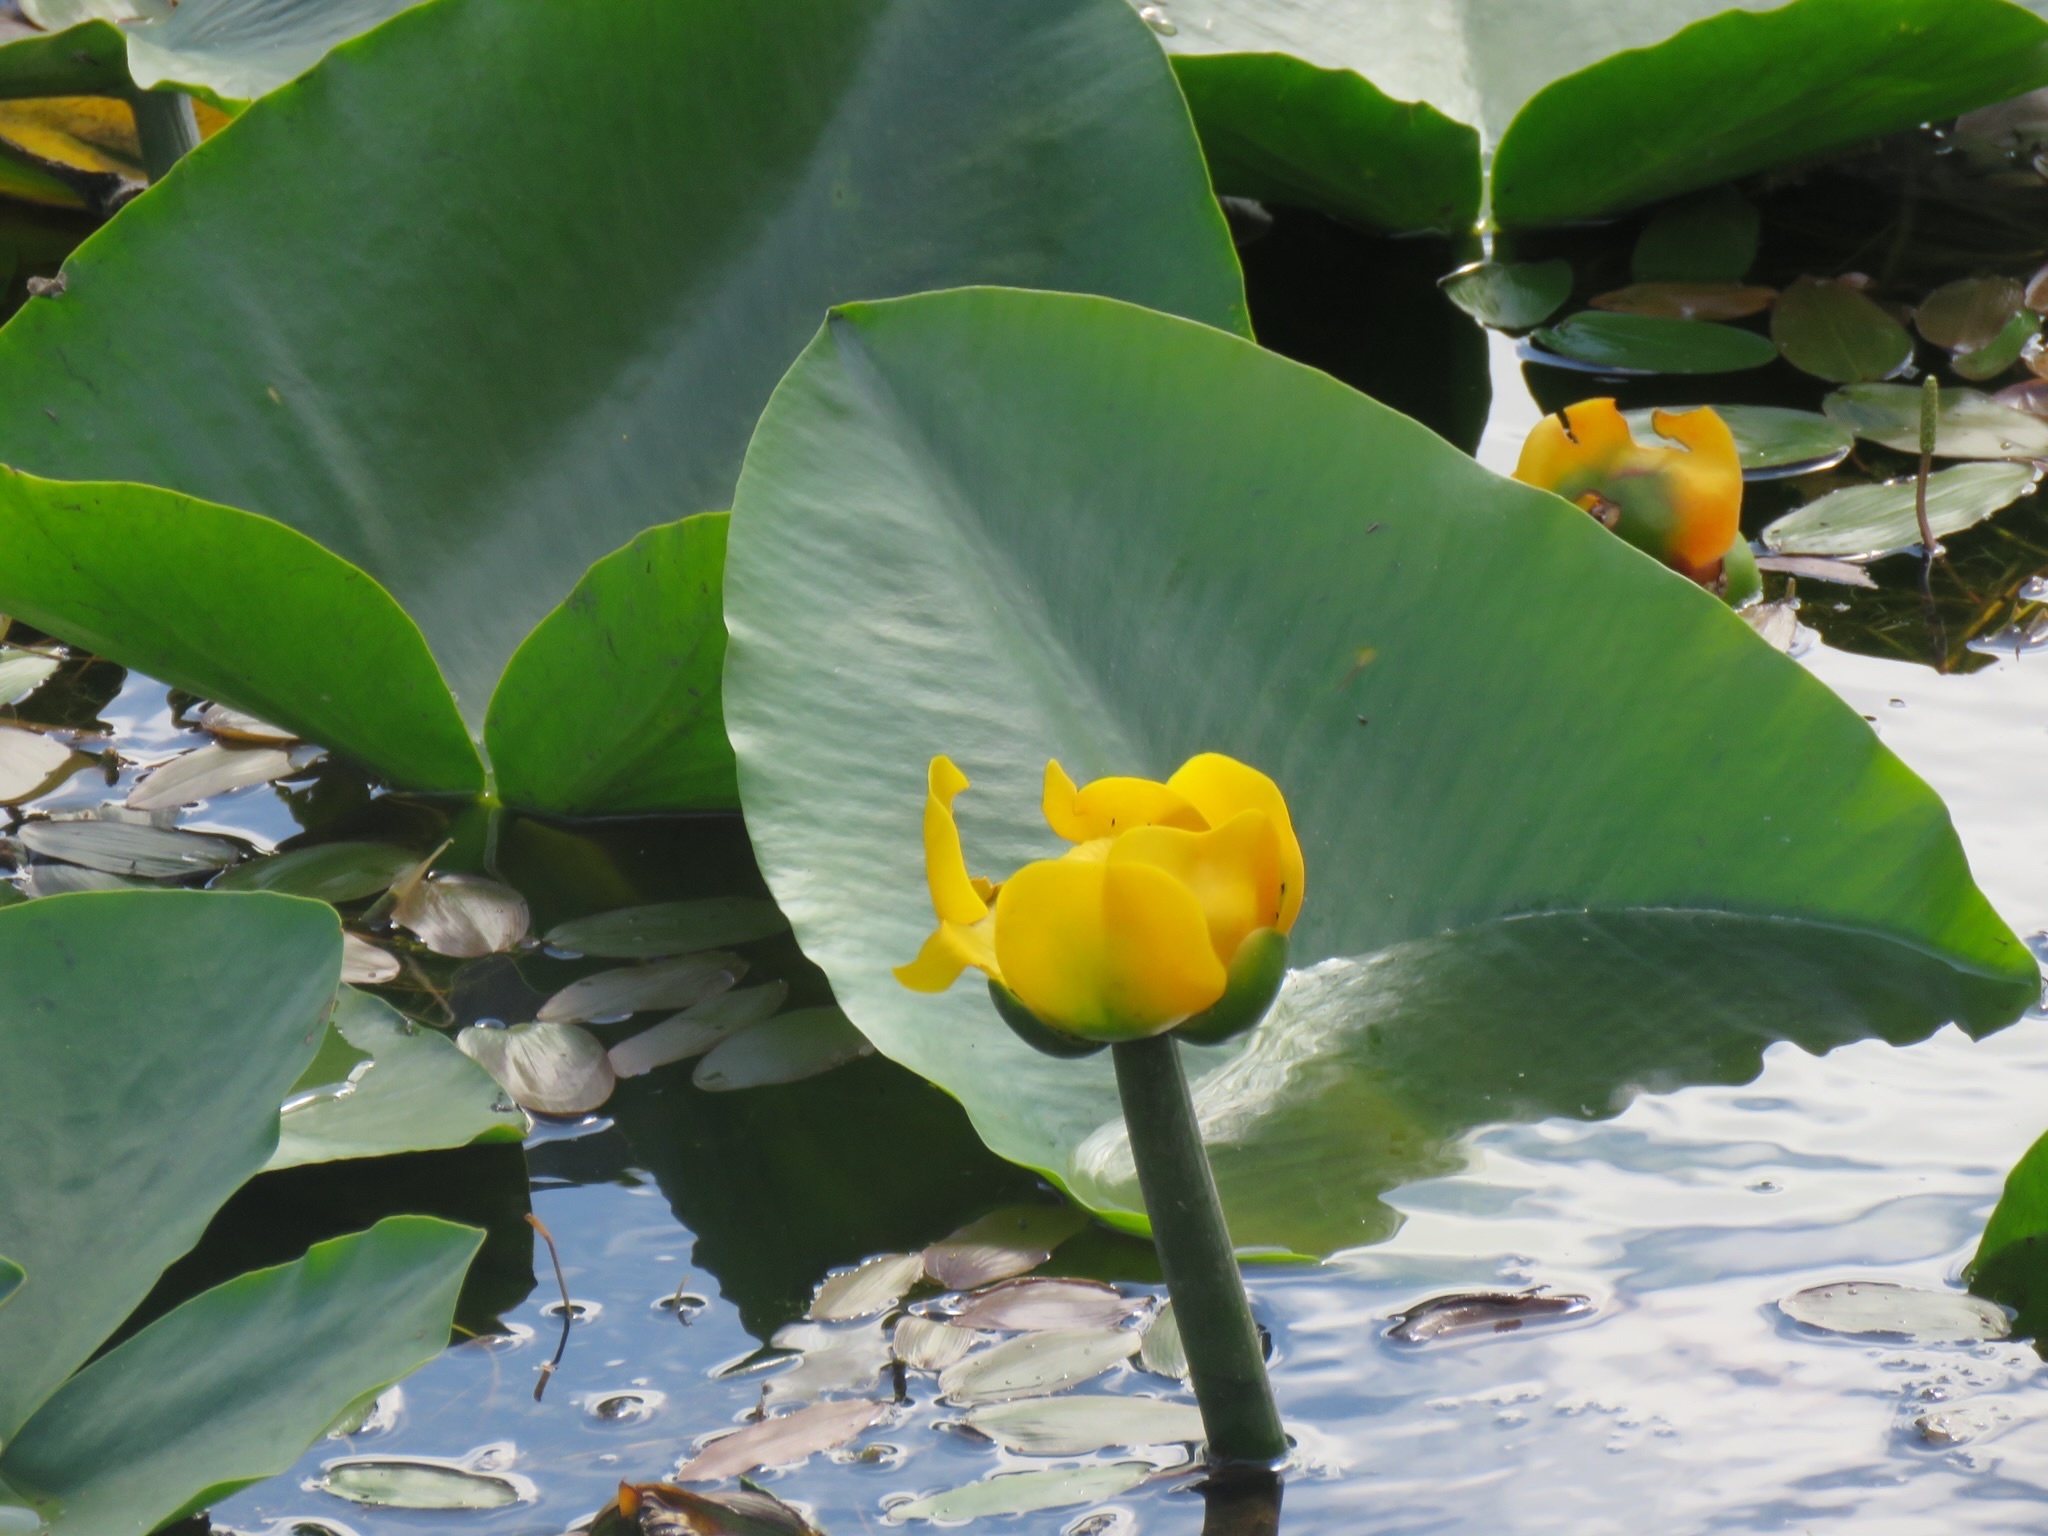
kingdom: Plantae
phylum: Tracheophyta
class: Magnoliopsida
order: Nymphaeales
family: Nymphaeaceae
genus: Nuphar
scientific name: Nuphar polysepala
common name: Rocky mountain cow-lily
